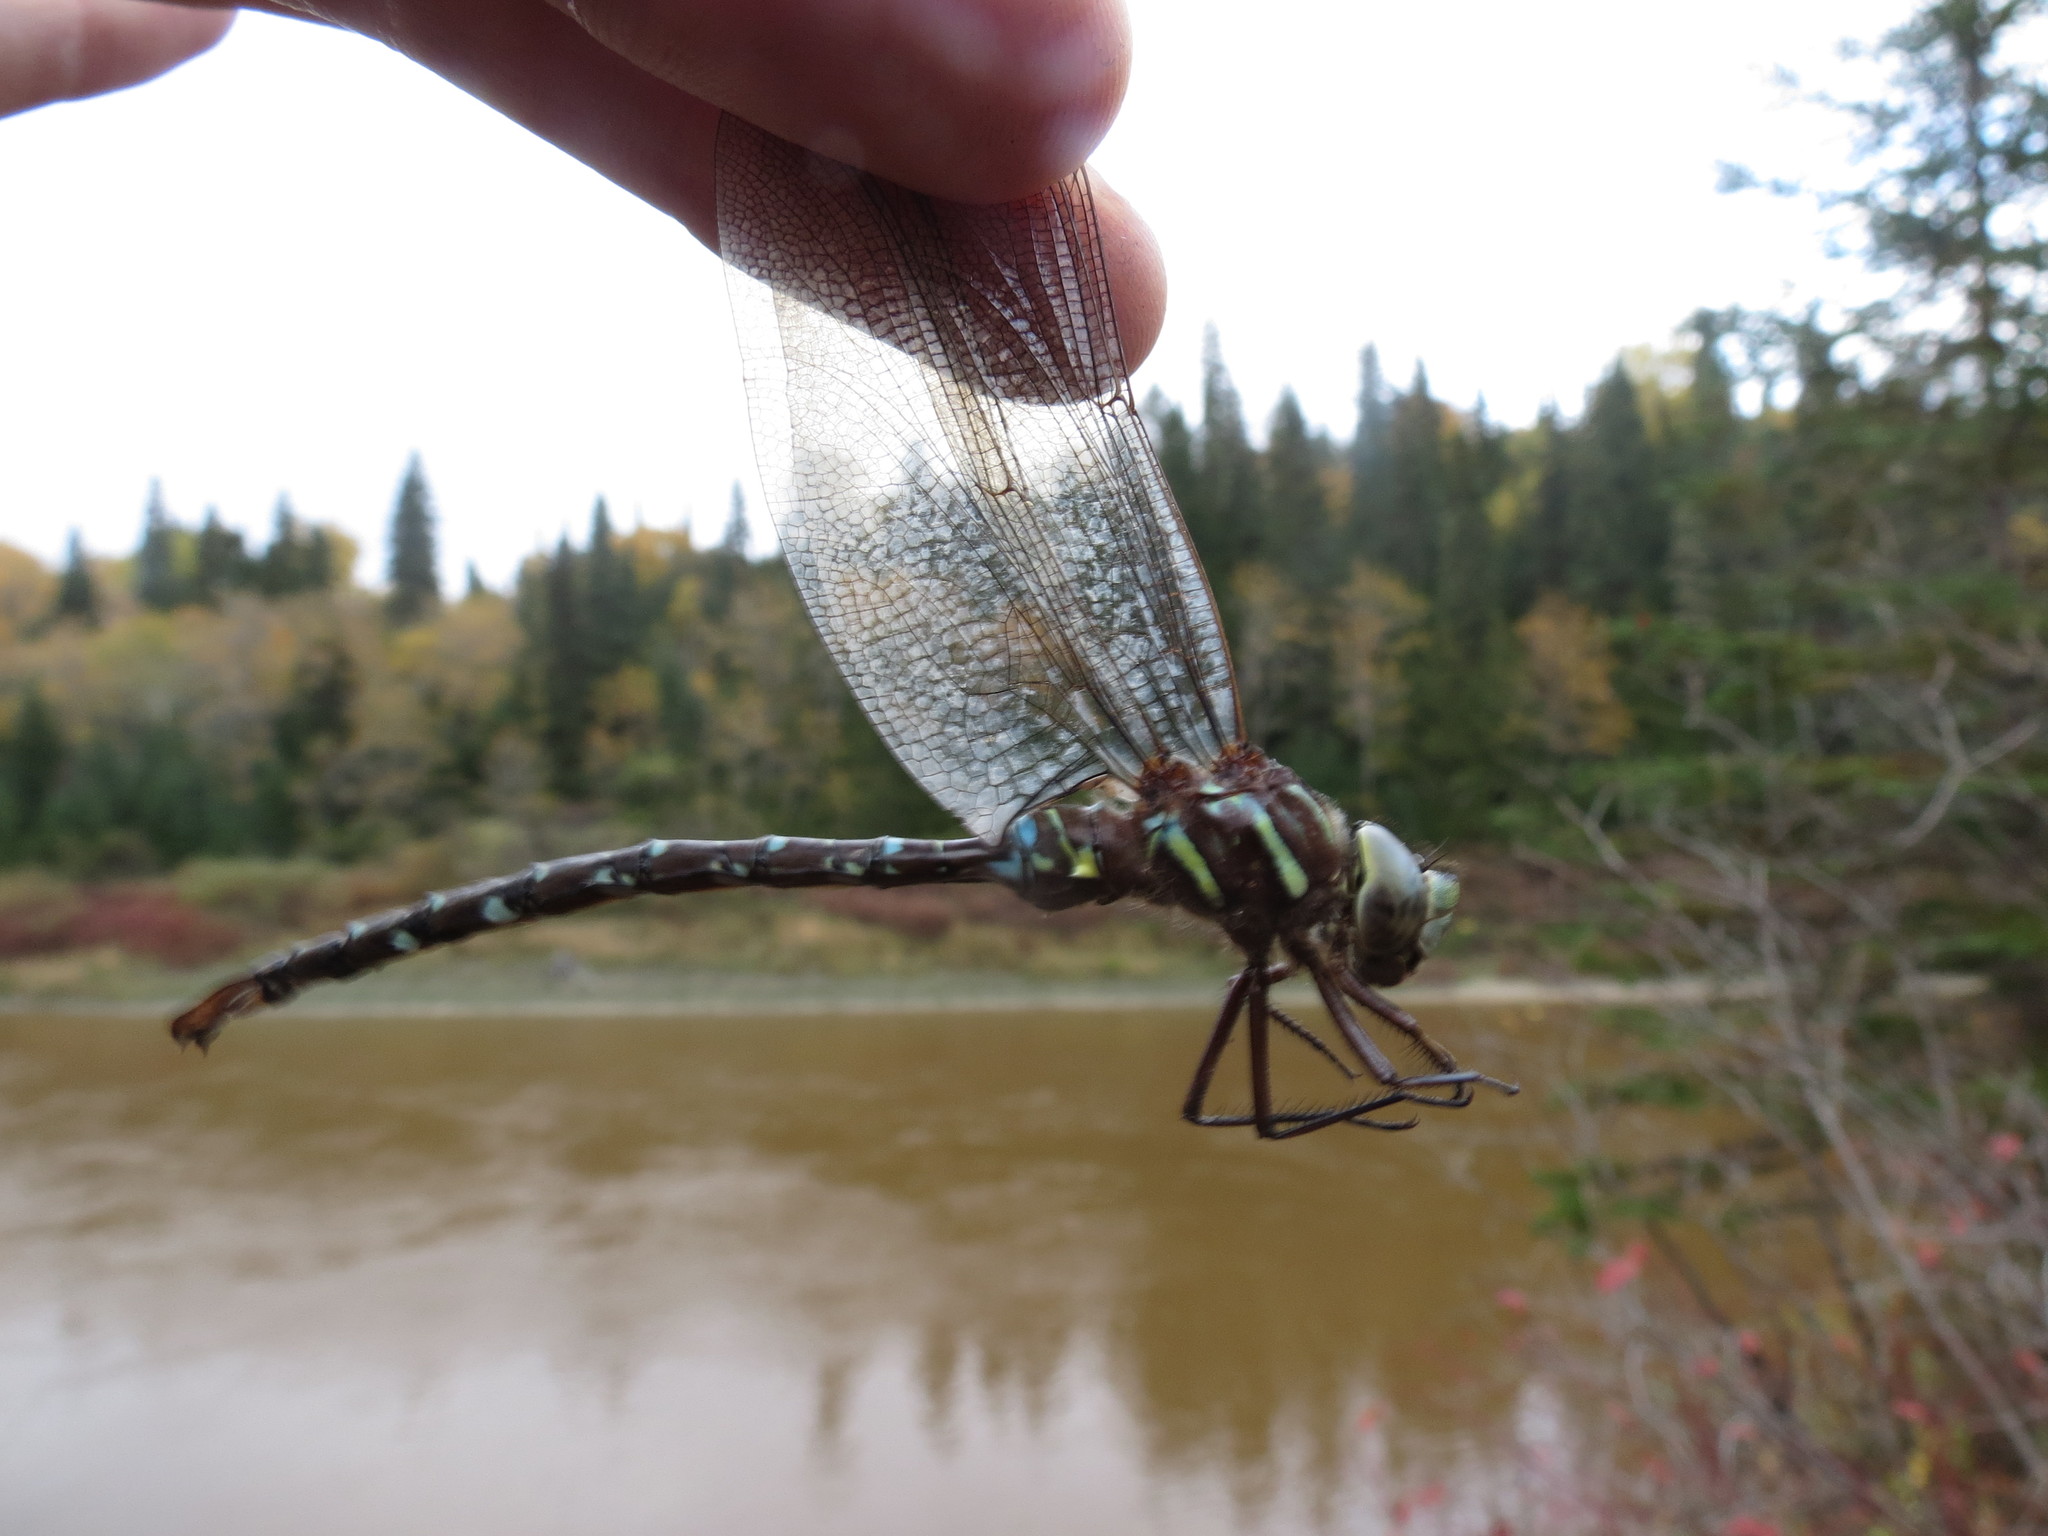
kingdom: Animalia
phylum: Arthropoda
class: Insecta
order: Odonata
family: Aeshnidae
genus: Aeshna
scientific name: Aeshna umbrosa
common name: Shadow darner
